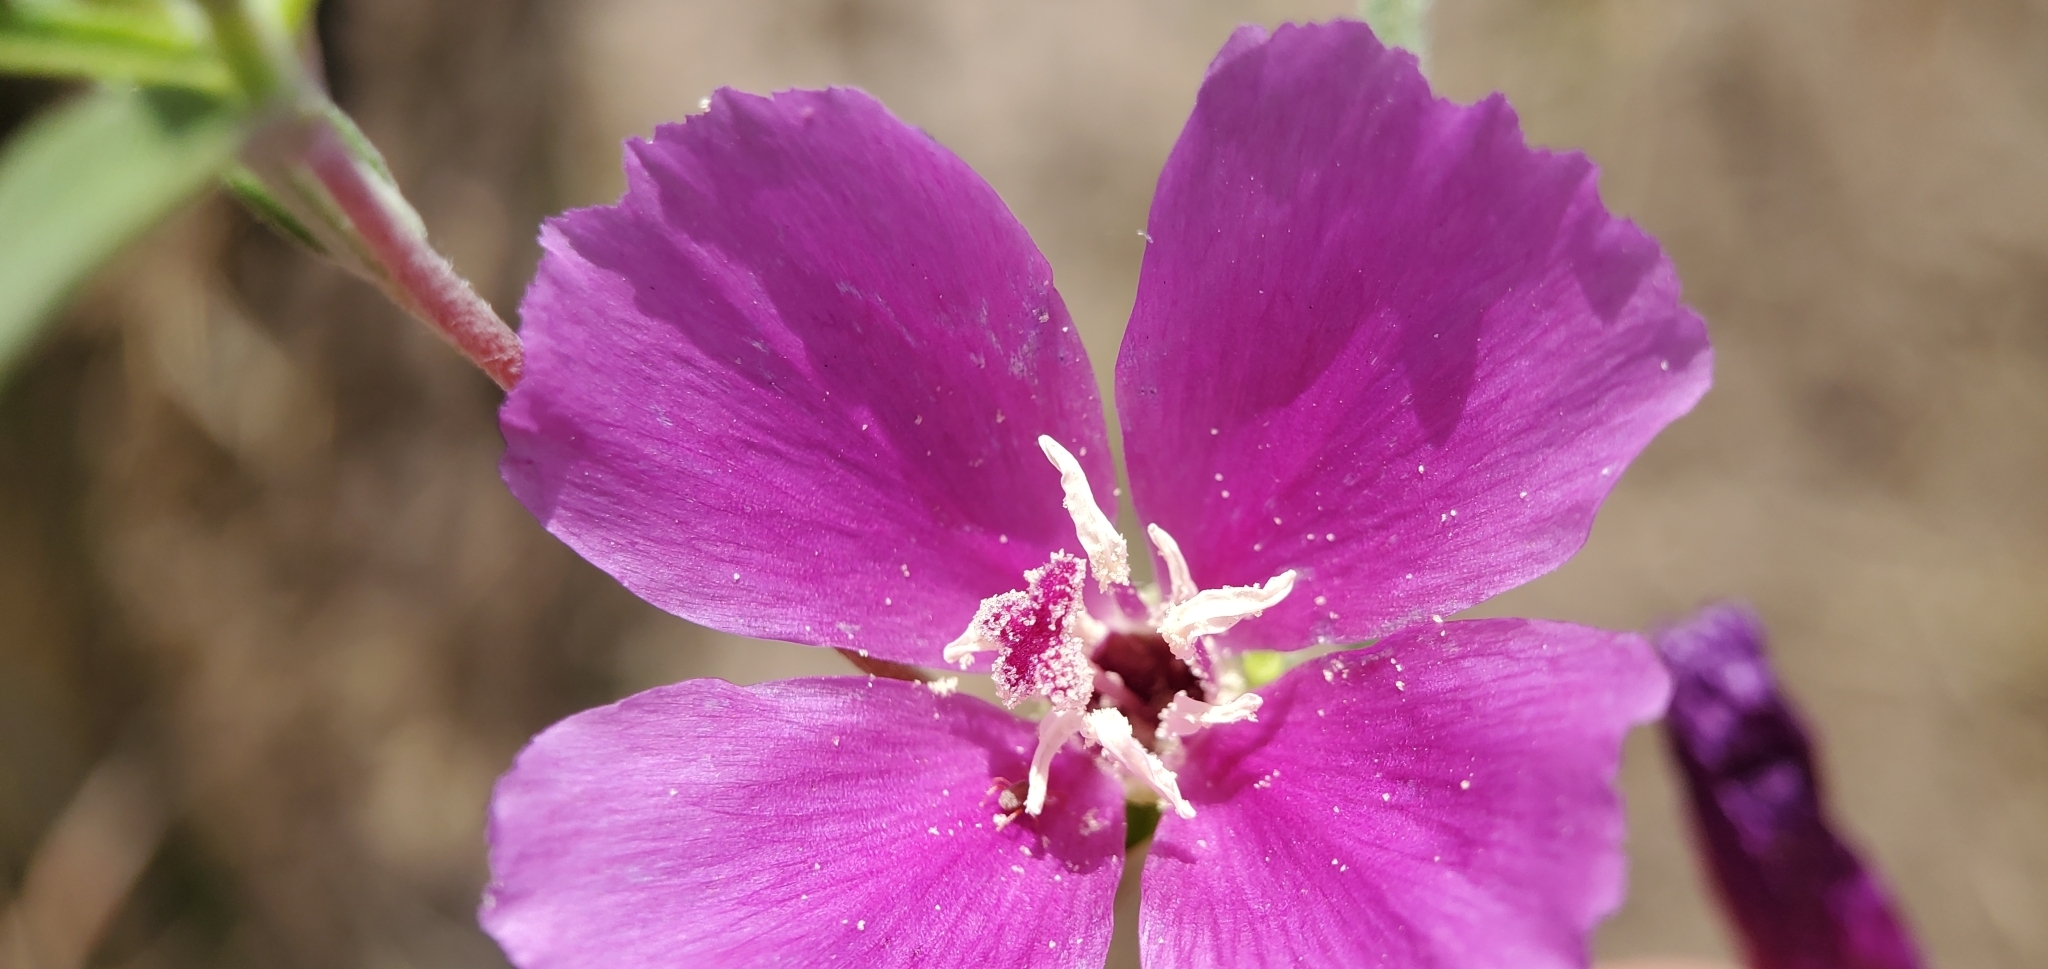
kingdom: Plantae
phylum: Tracheophyta
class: Magnoliopsida
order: Myrtales
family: Onagraceae
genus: Clarkia
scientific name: Clarkia purpurea
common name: Purple clarkia
